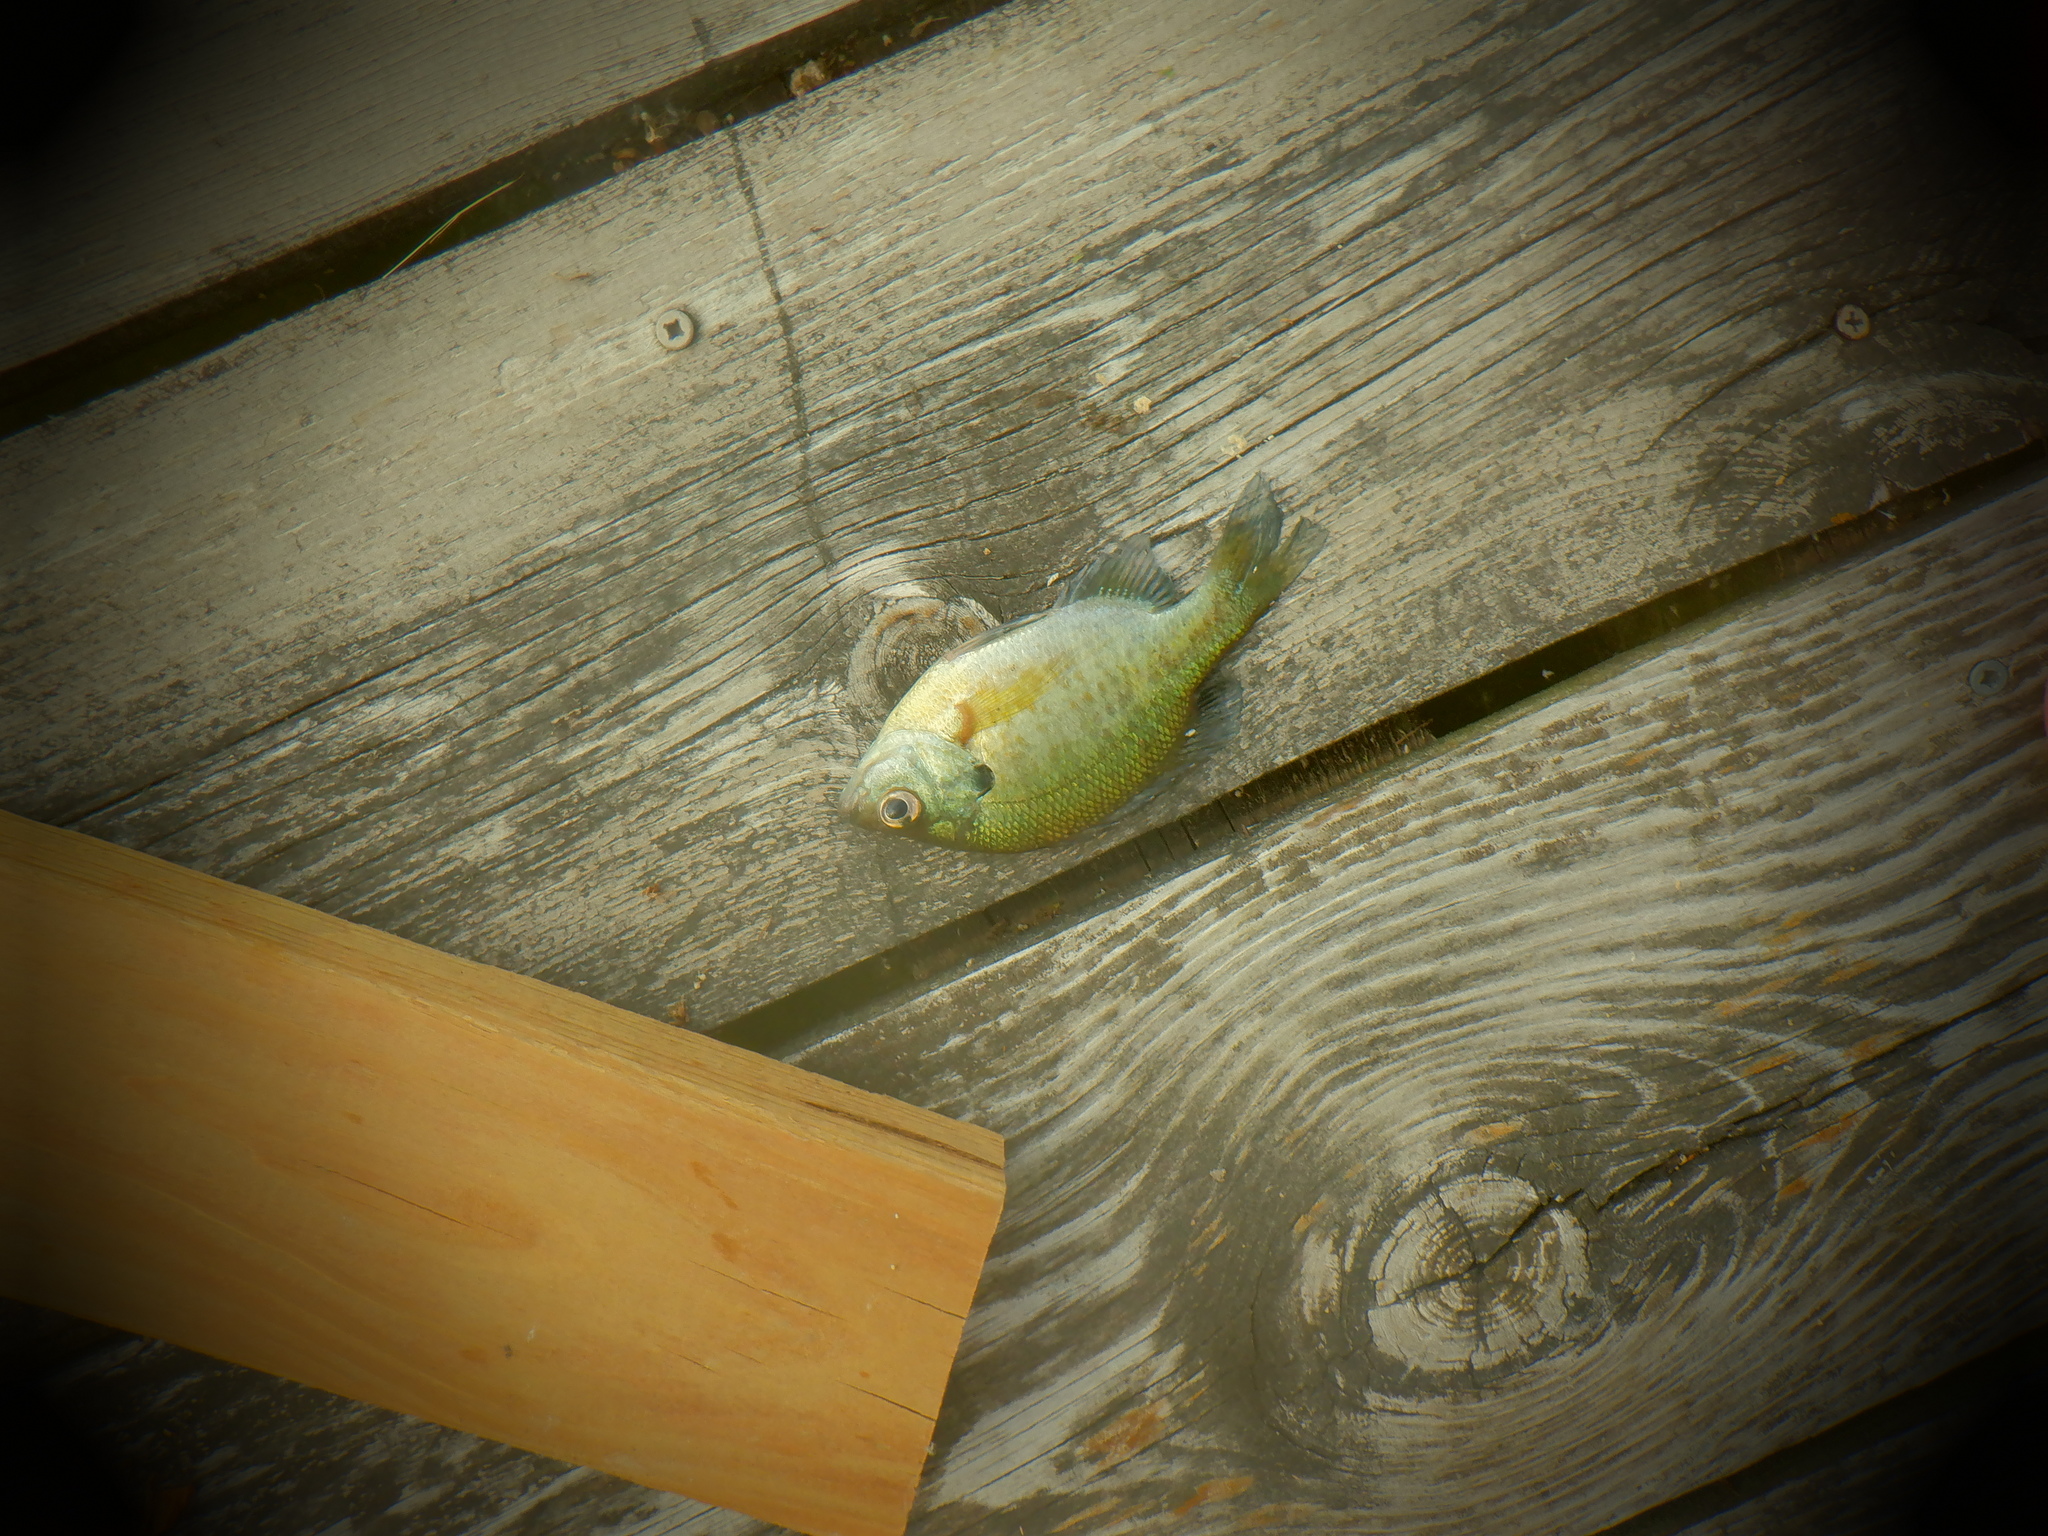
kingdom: Animalia
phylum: Chordata
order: Perciformes
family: Centrarchidae
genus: Lepomis
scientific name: Lepomis macrochirus
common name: Bluegill
